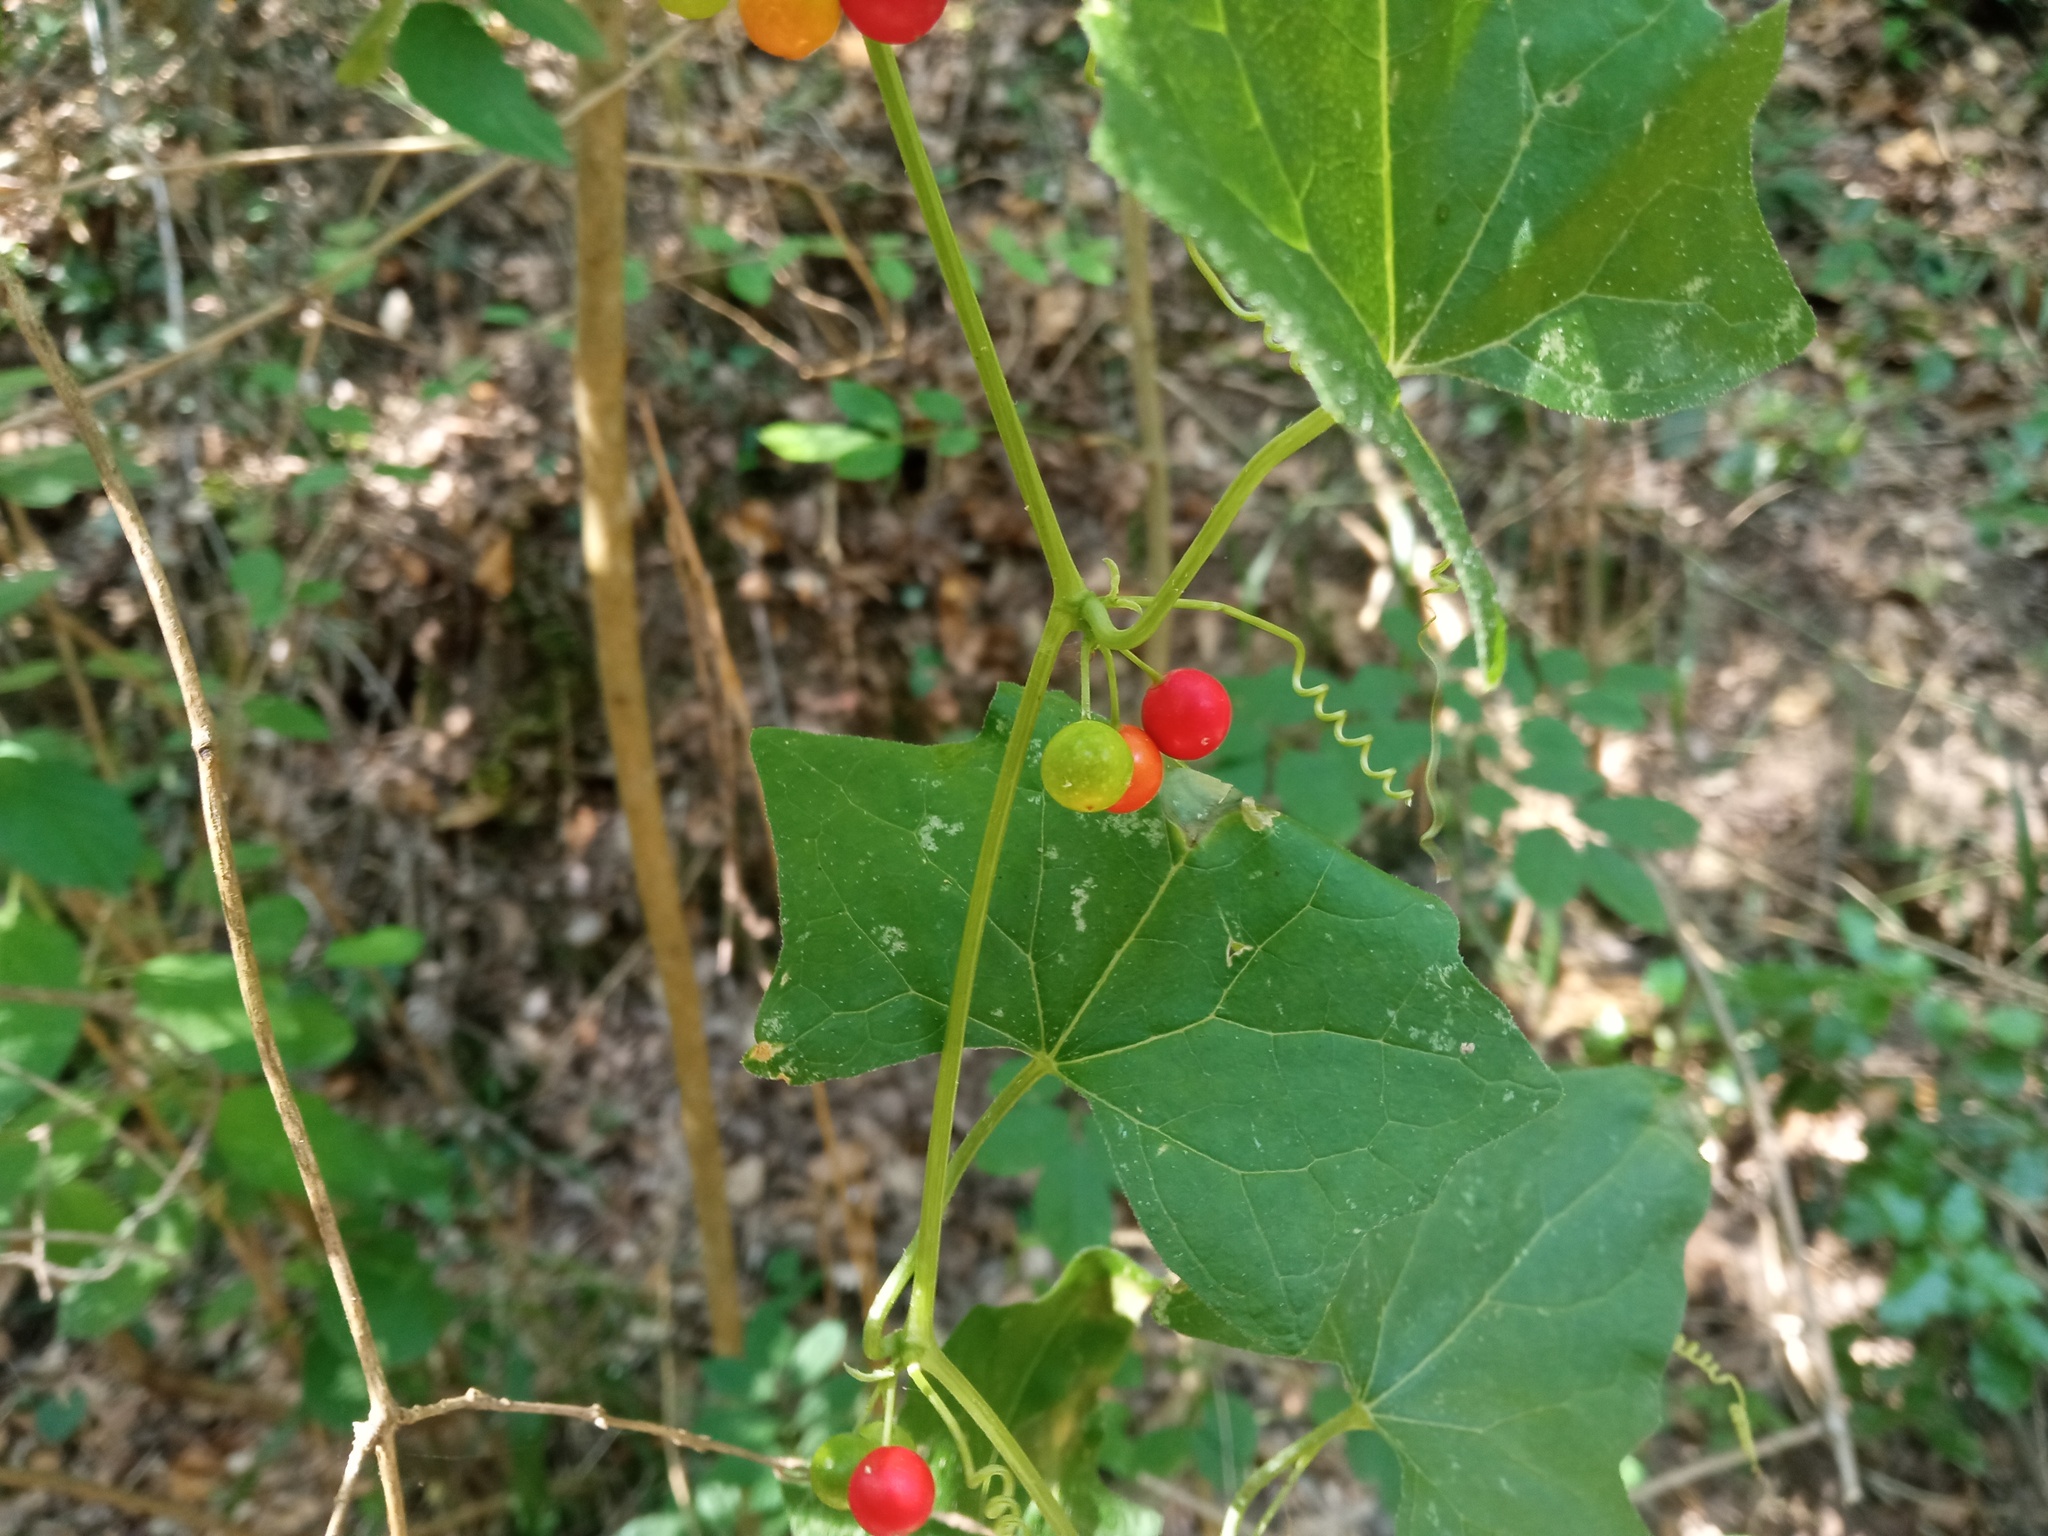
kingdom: Plantae
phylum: Tracheophyta
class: Magnoliopsida
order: Cucurbitales
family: Cucurbitaceae
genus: Bryonia
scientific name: Bryonia dioica
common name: White bryony
